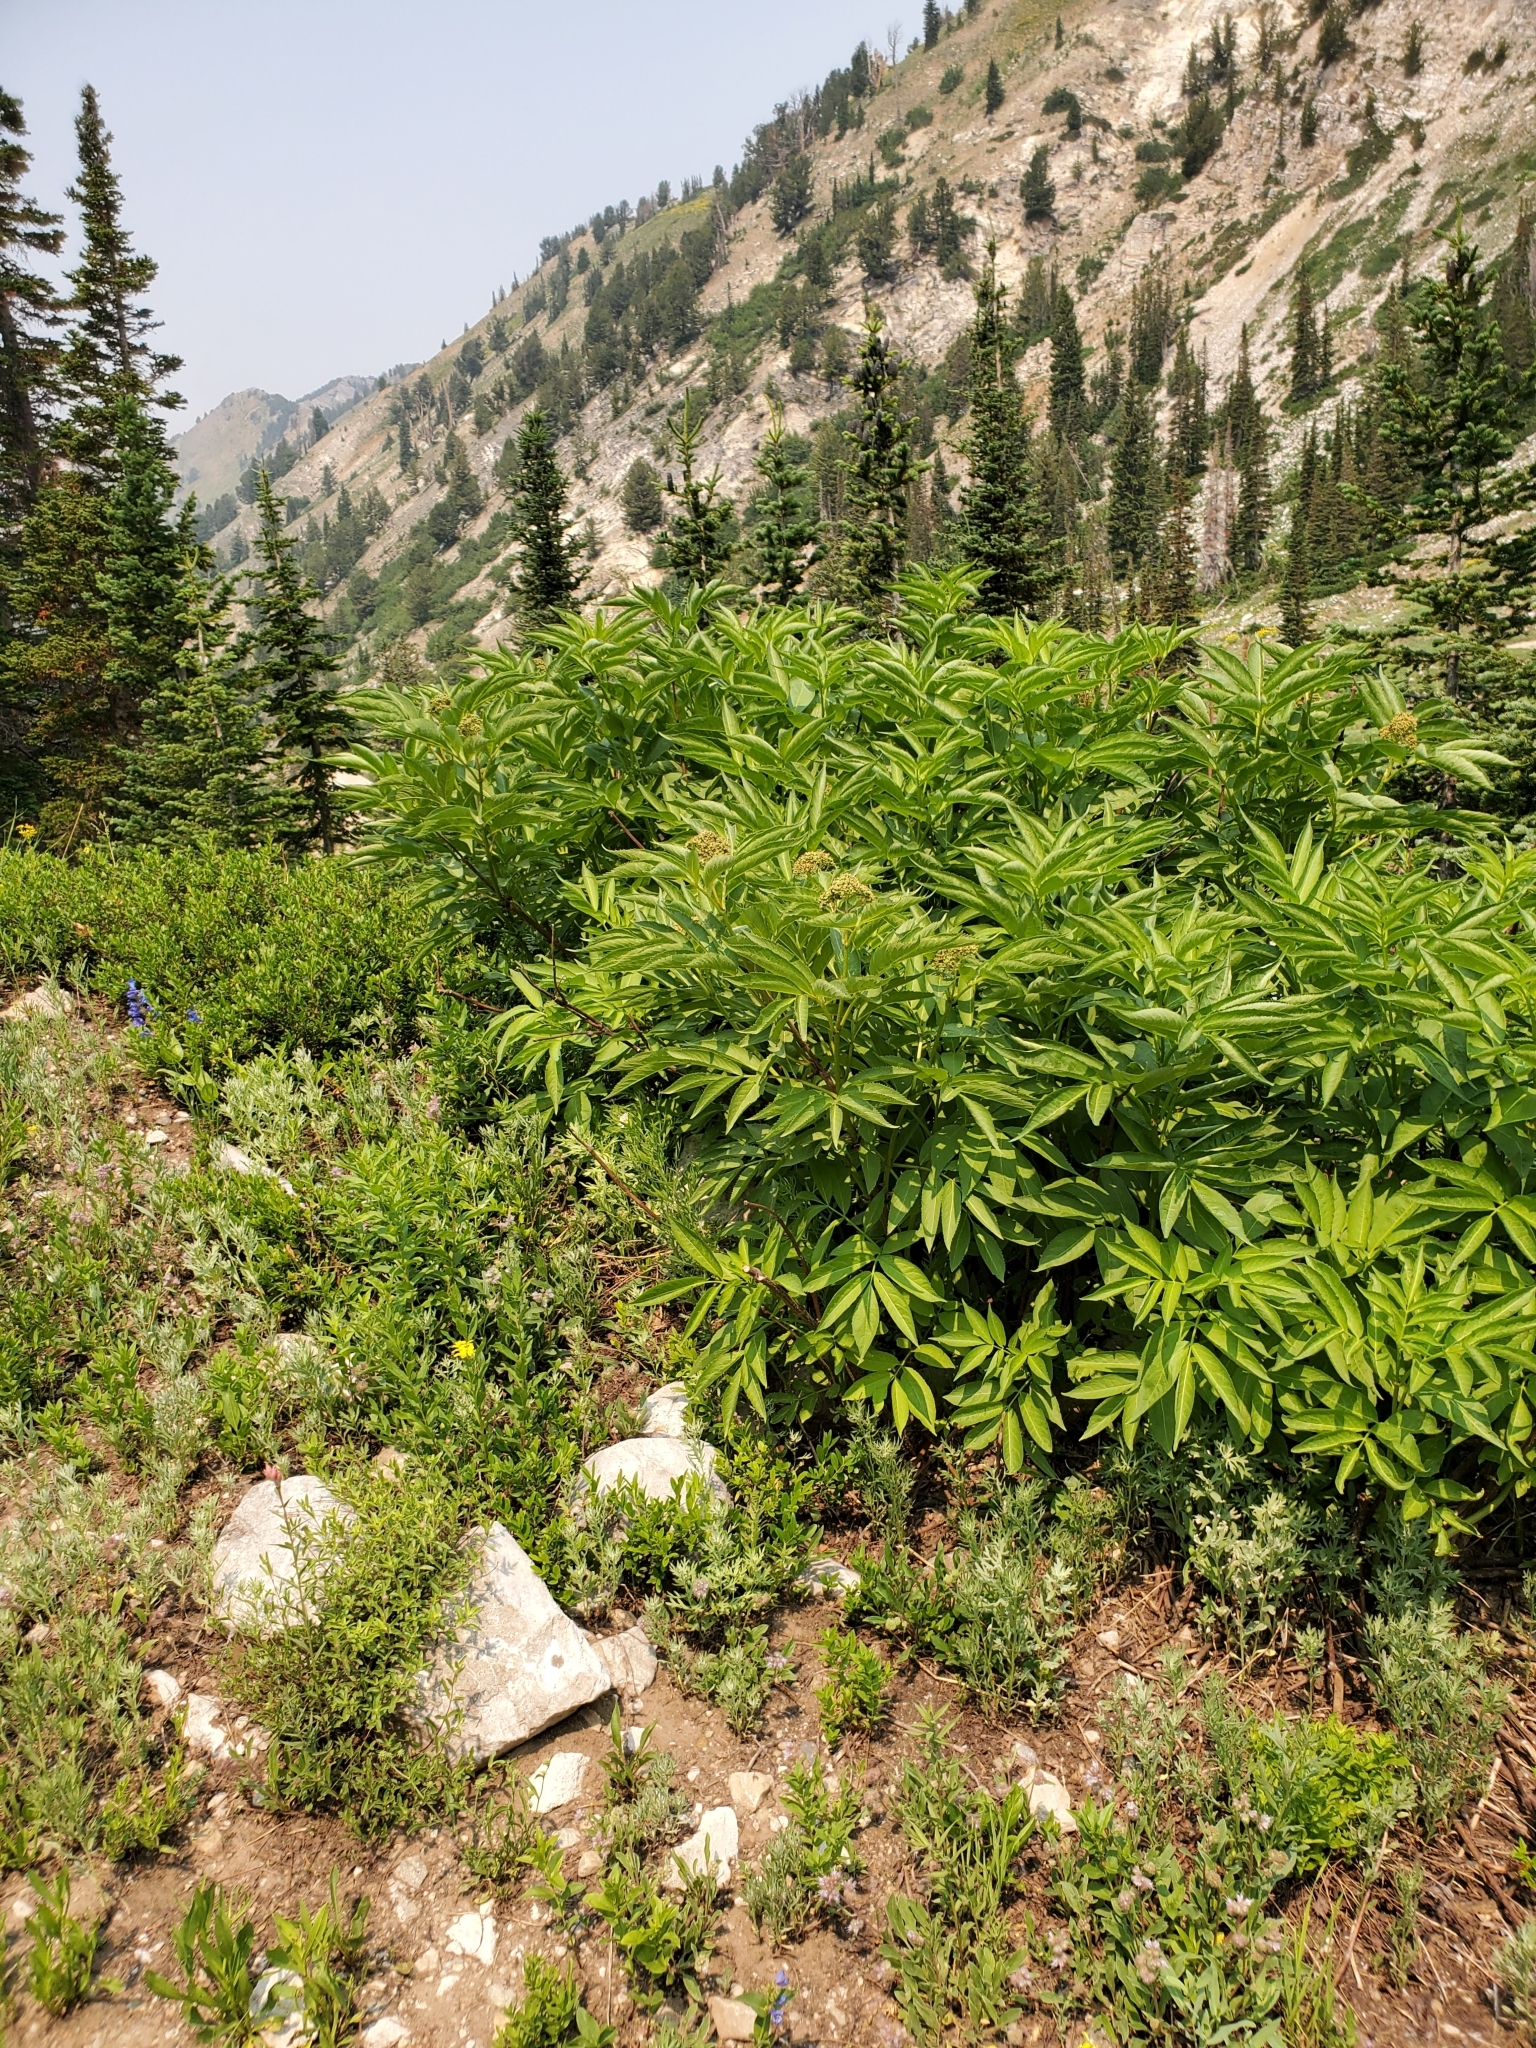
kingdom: Plantae
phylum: Tracheophyta
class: Magnoliopsida
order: Dipsacales
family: Viburnaceae
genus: Sambucus
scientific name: Sambucus racemosa
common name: Red-berried elder
